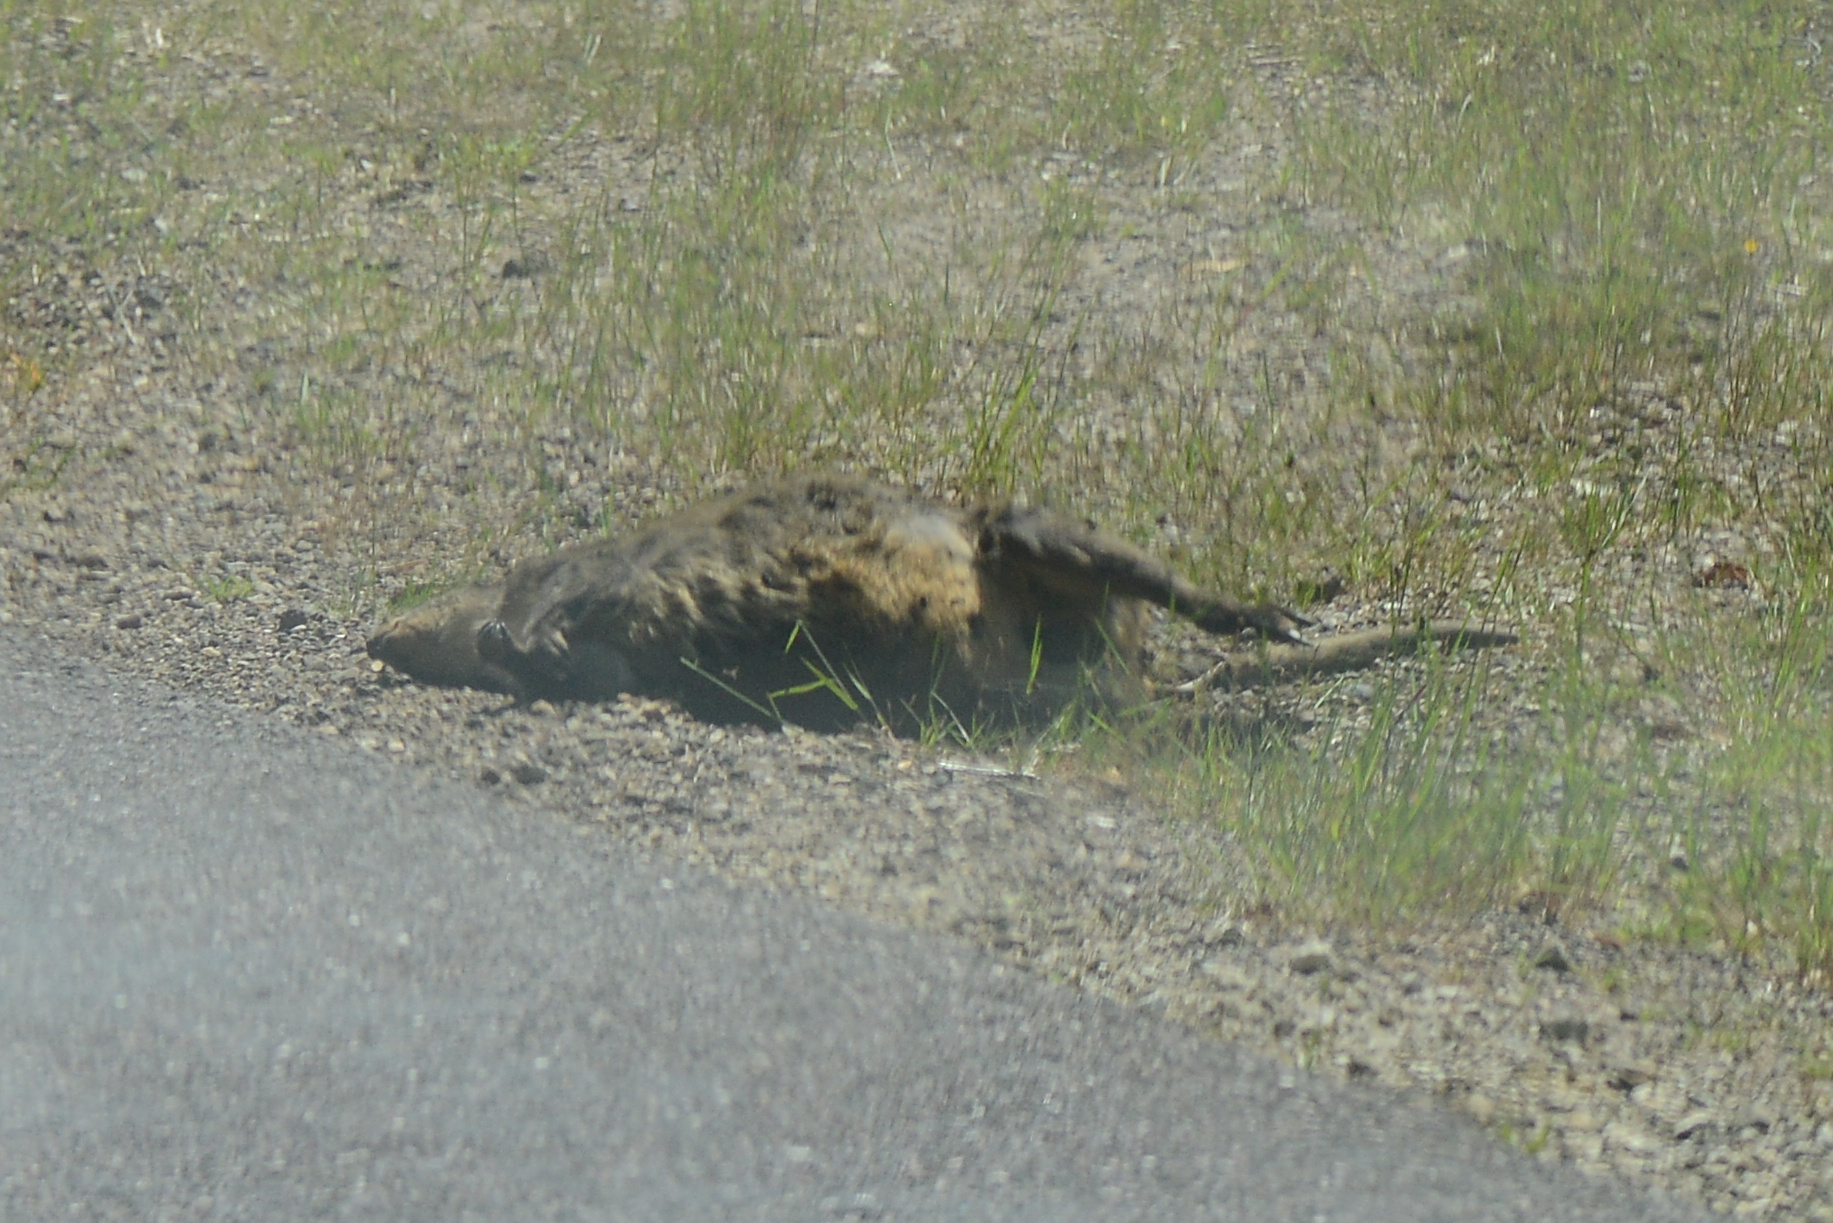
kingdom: Animalia
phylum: Chordata
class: Mammalia
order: Diprotodontia
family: Macropodidae
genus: Thylogale
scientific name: Thylogale billardierii
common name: Tasmanian pademelon
